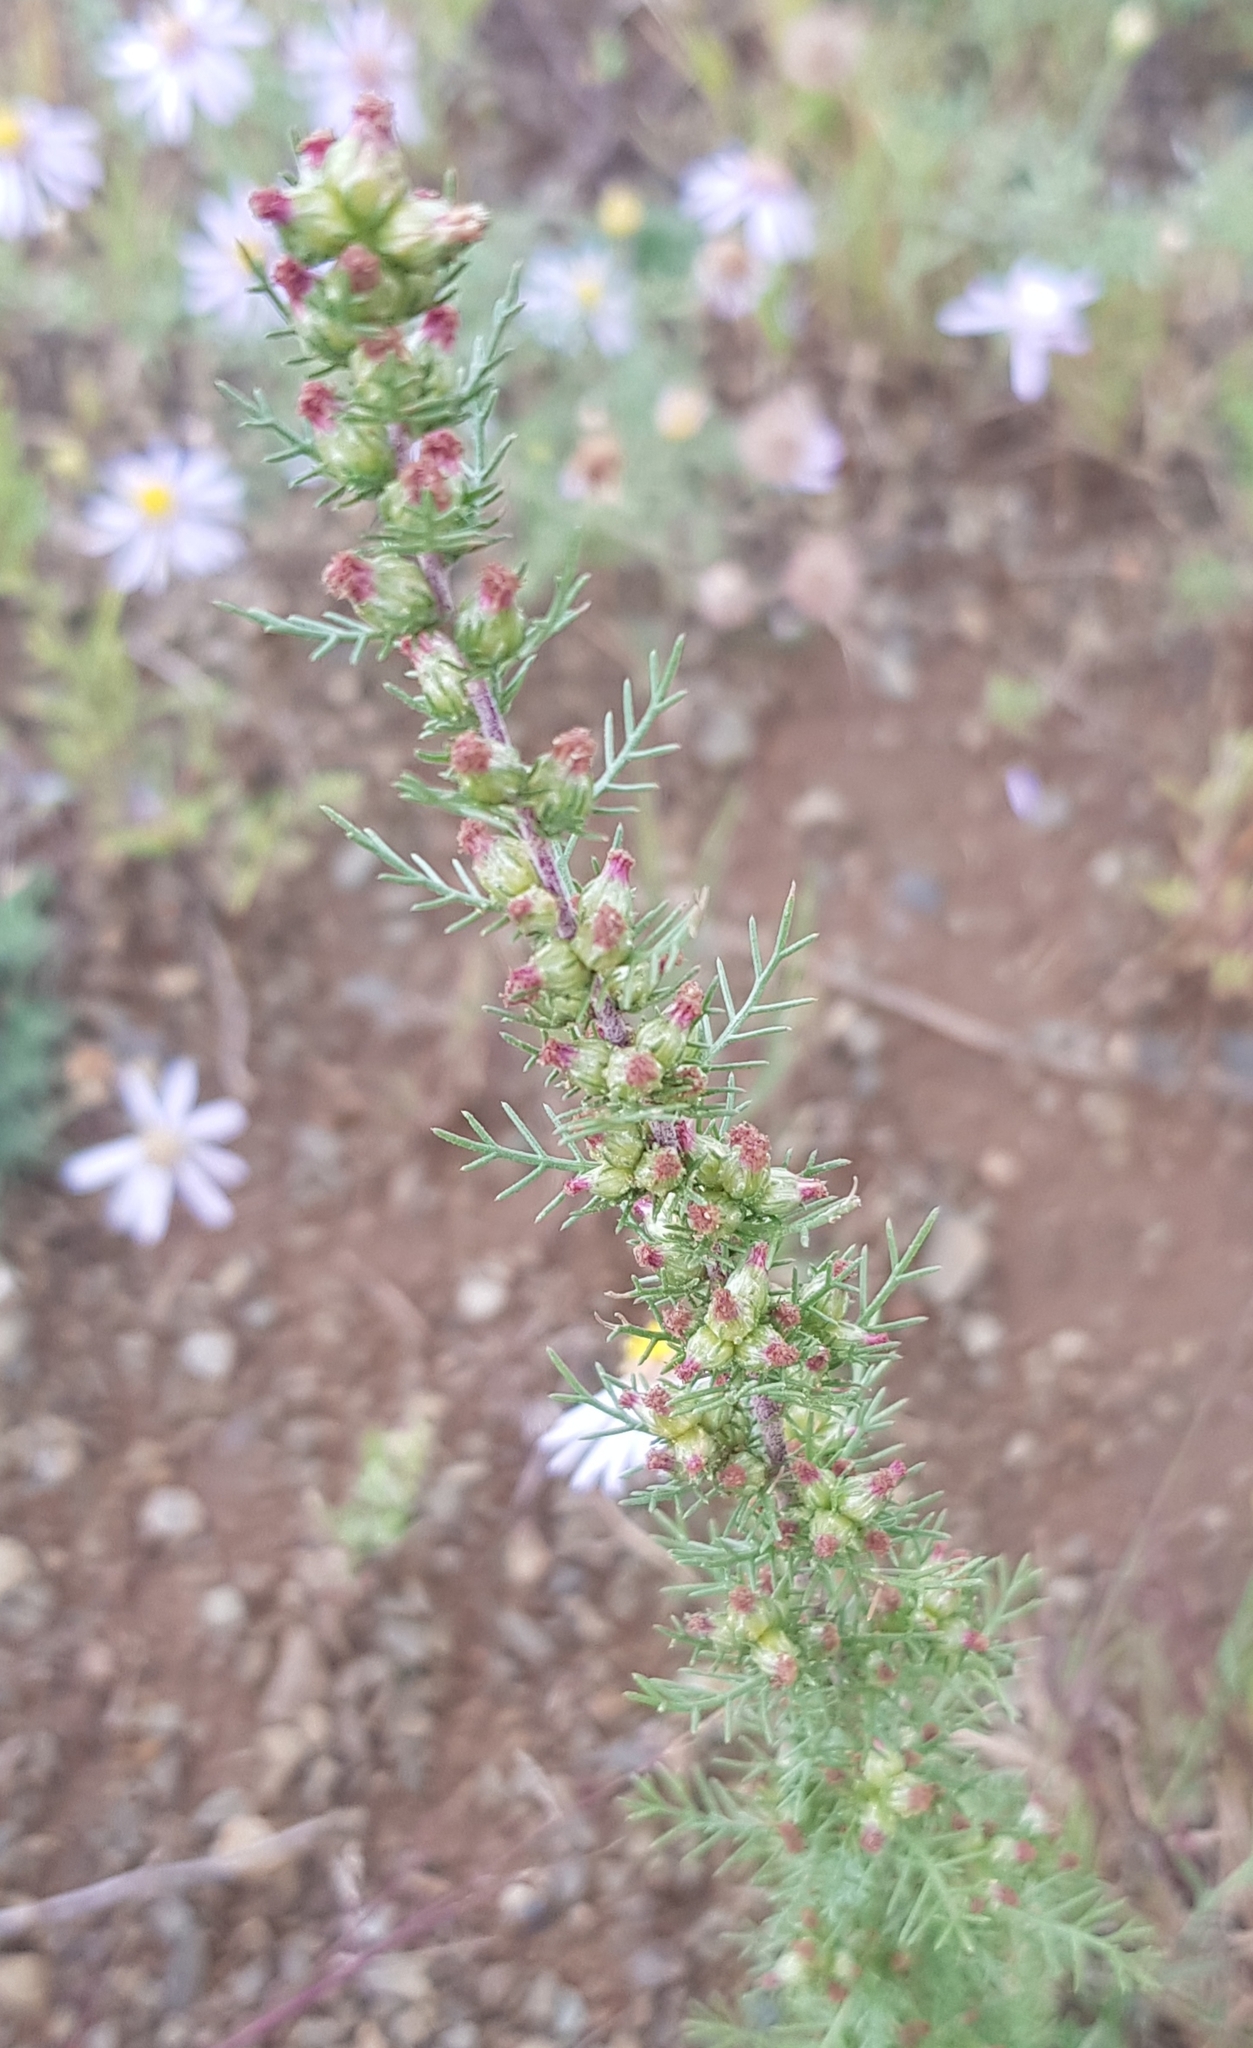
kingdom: Plantae
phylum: Tracheophyta
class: Magnoliopsida
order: Asterales
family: Asteraceae
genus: Neopallasia
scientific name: Neopallasia pectinata
